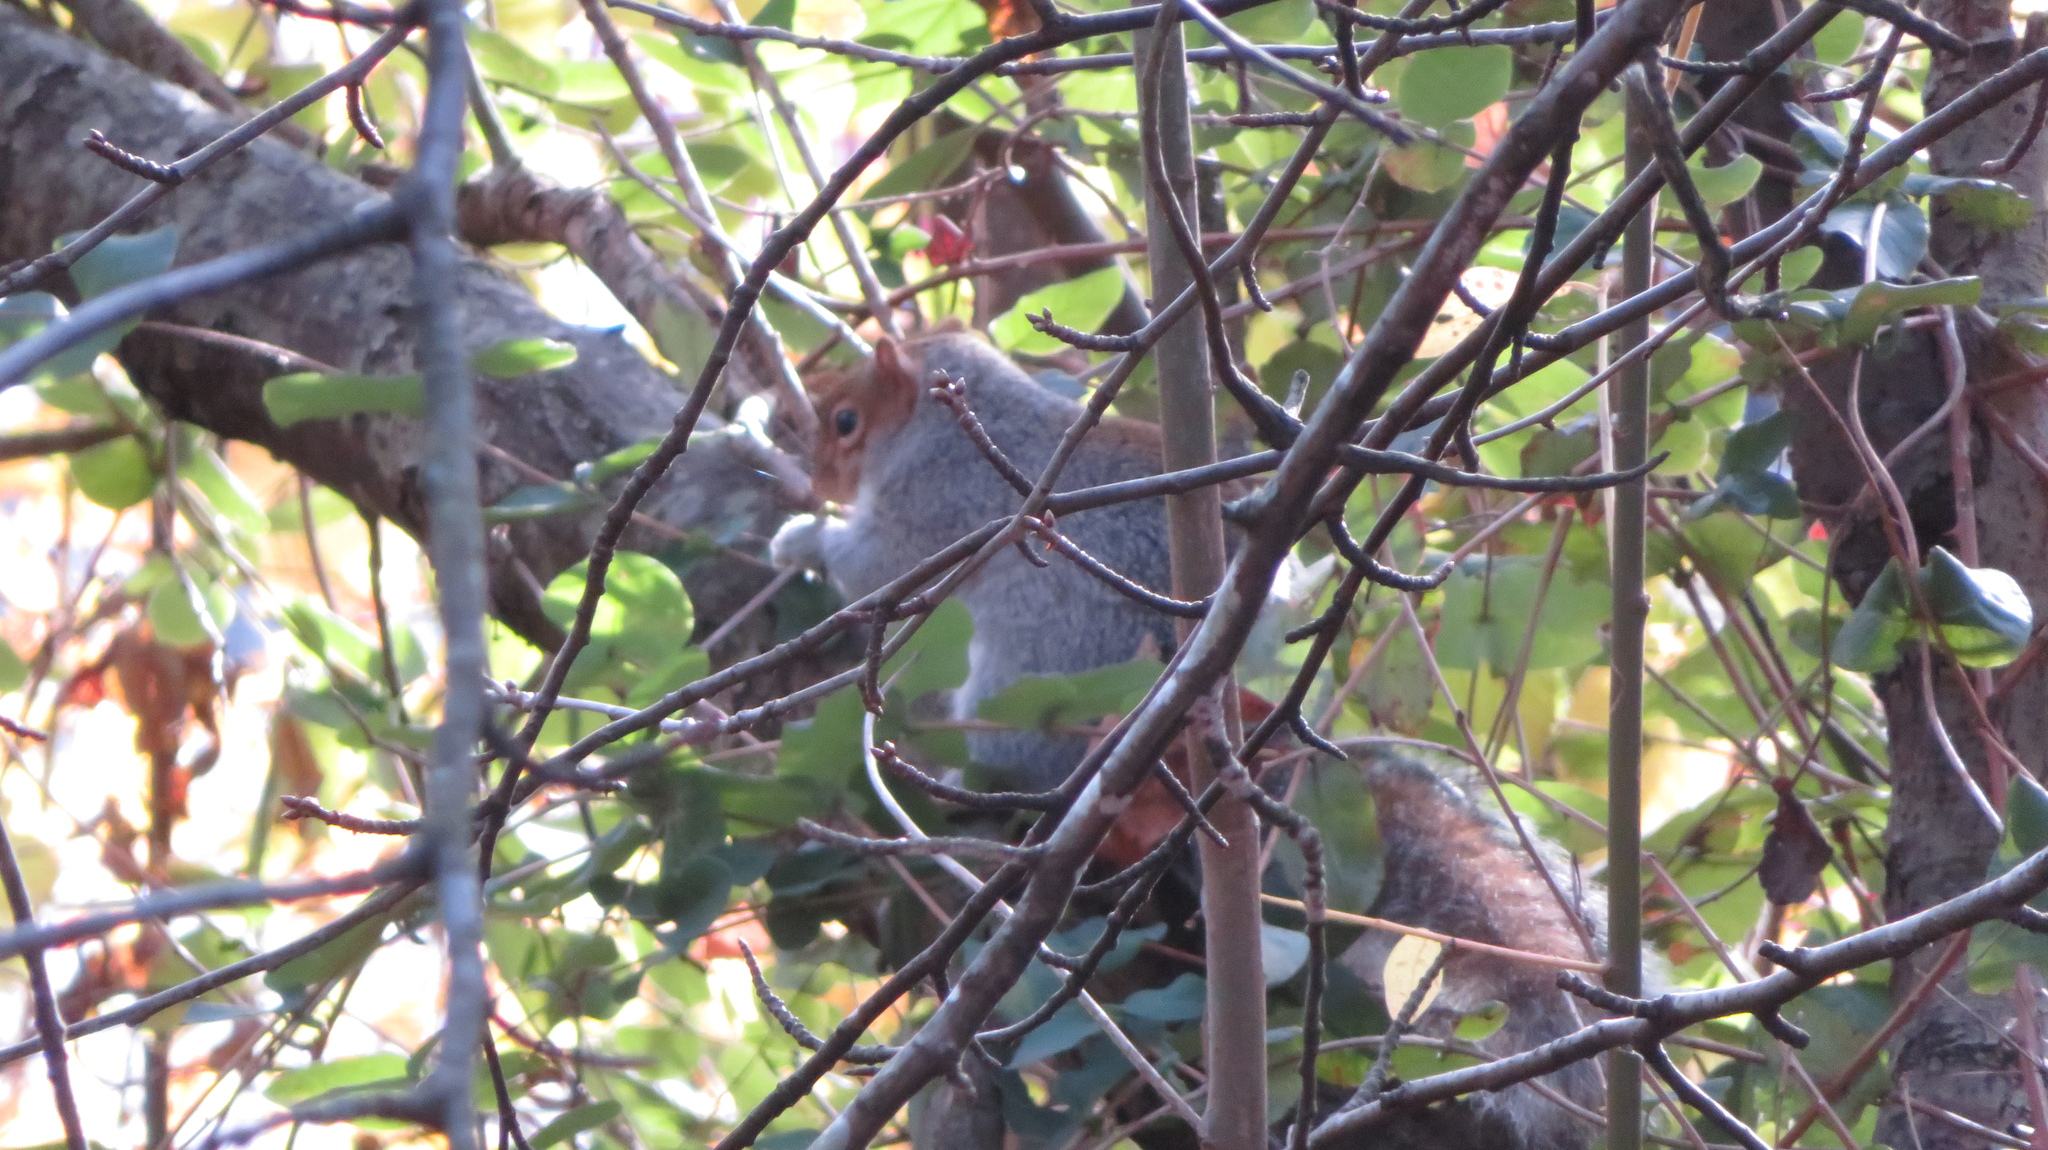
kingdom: Animalia
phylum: Chordata
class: Mammalia
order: Rodentia
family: Sciuridae
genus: Sciurus
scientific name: Sciurus carolinensis
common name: Eastern gray squirrel
